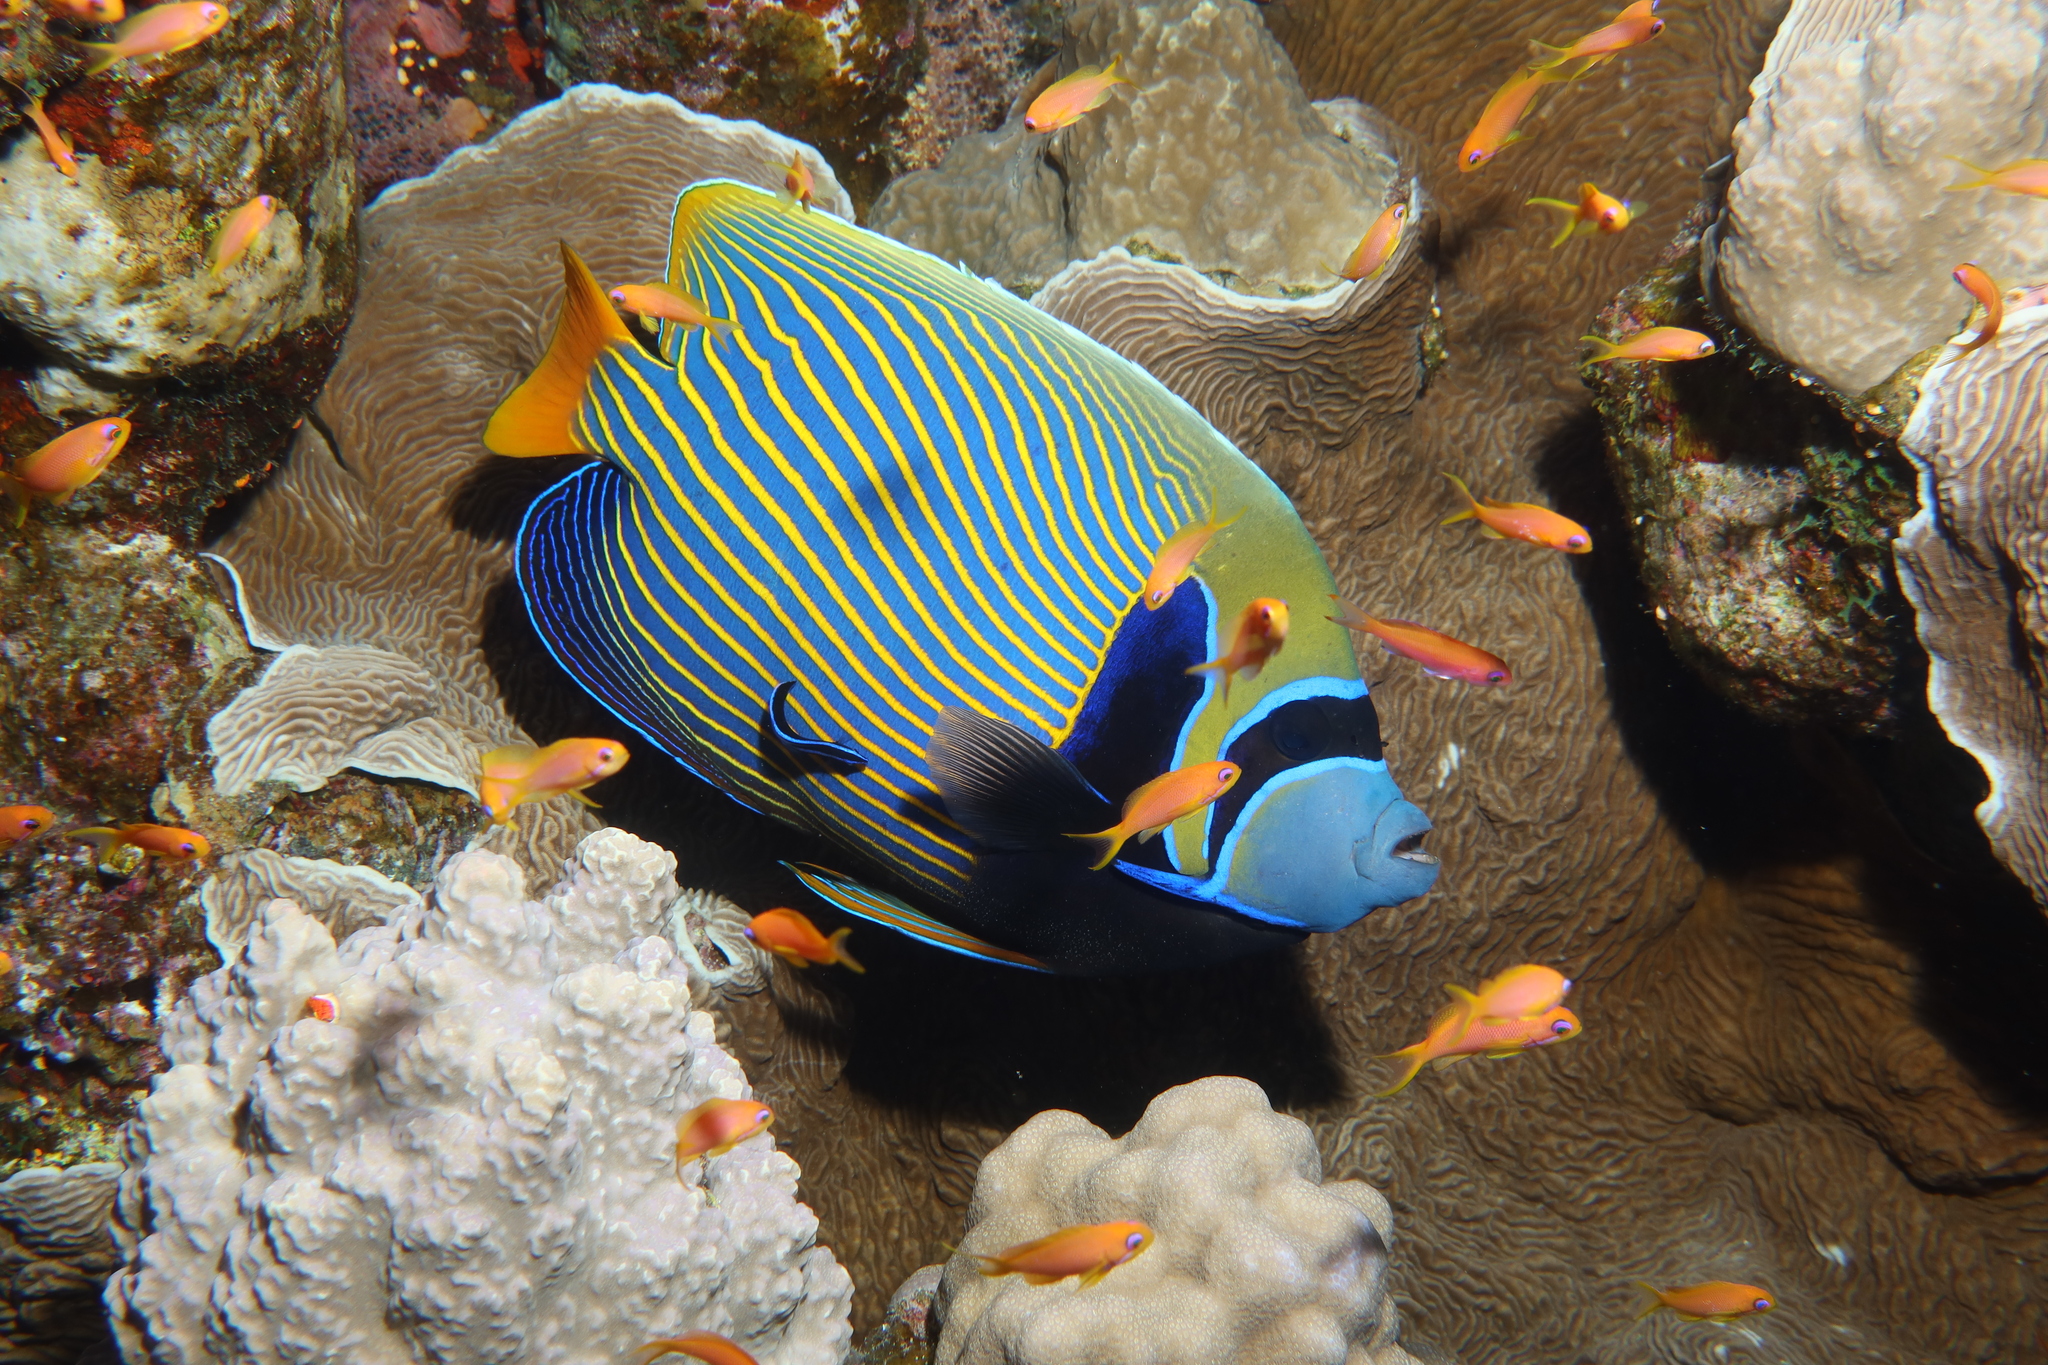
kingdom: Animalia
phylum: Chordata
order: Perciformes
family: Pomacanthidae
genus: Pomacanthus
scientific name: Pomacanthus imperator
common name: Emperor angelfish
